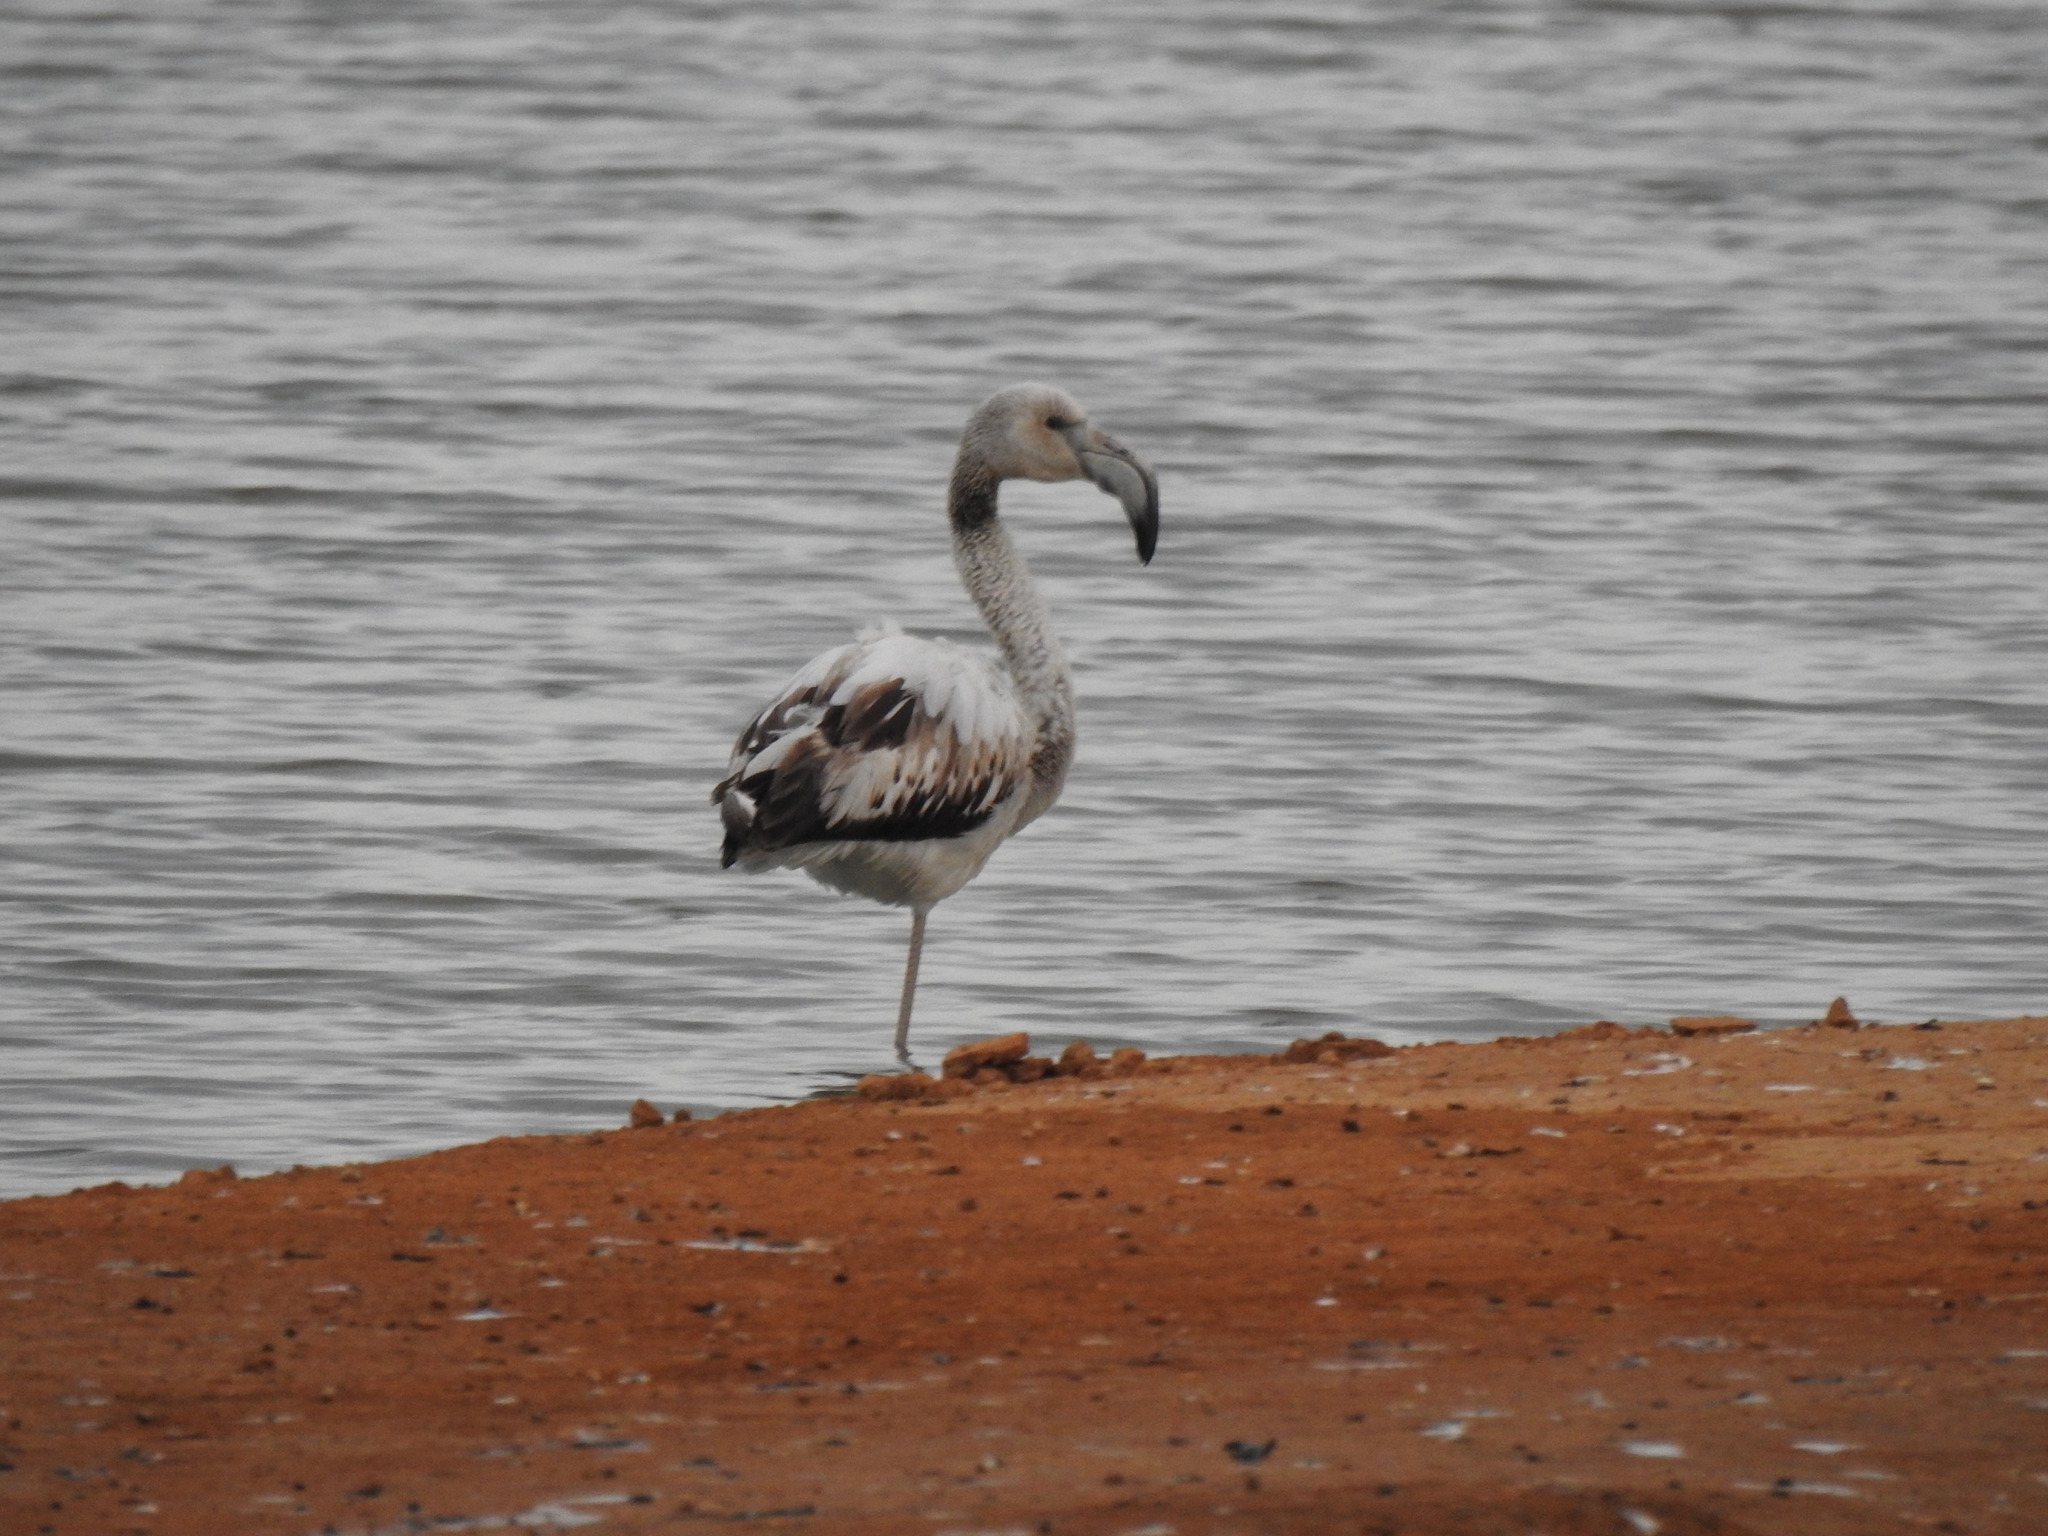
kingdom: Animalia
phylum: Chordata
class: Aves
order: Phoenicopteriformes
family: Phoenicopteridae
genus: Phoenicopterus
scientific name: Phoenicopterus roseus
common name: Greater flamingo
